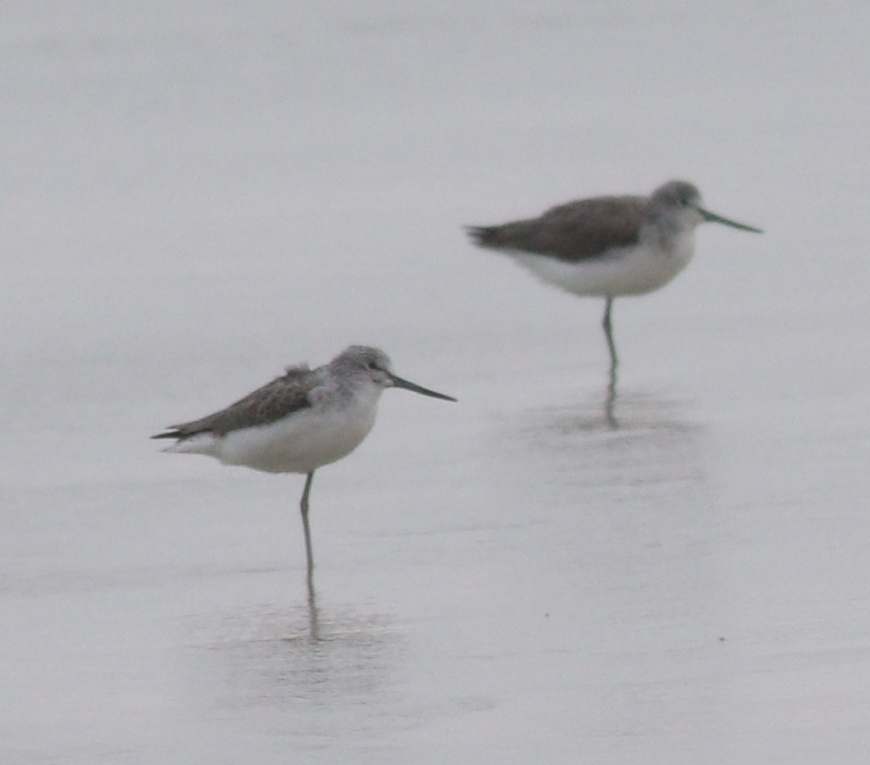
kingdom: Animalia
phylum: Chordata
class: Aves
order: Charadriiformes
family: Scolopacidae
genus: Tringa
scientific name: Tringa nebularia
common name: Common greenshank
